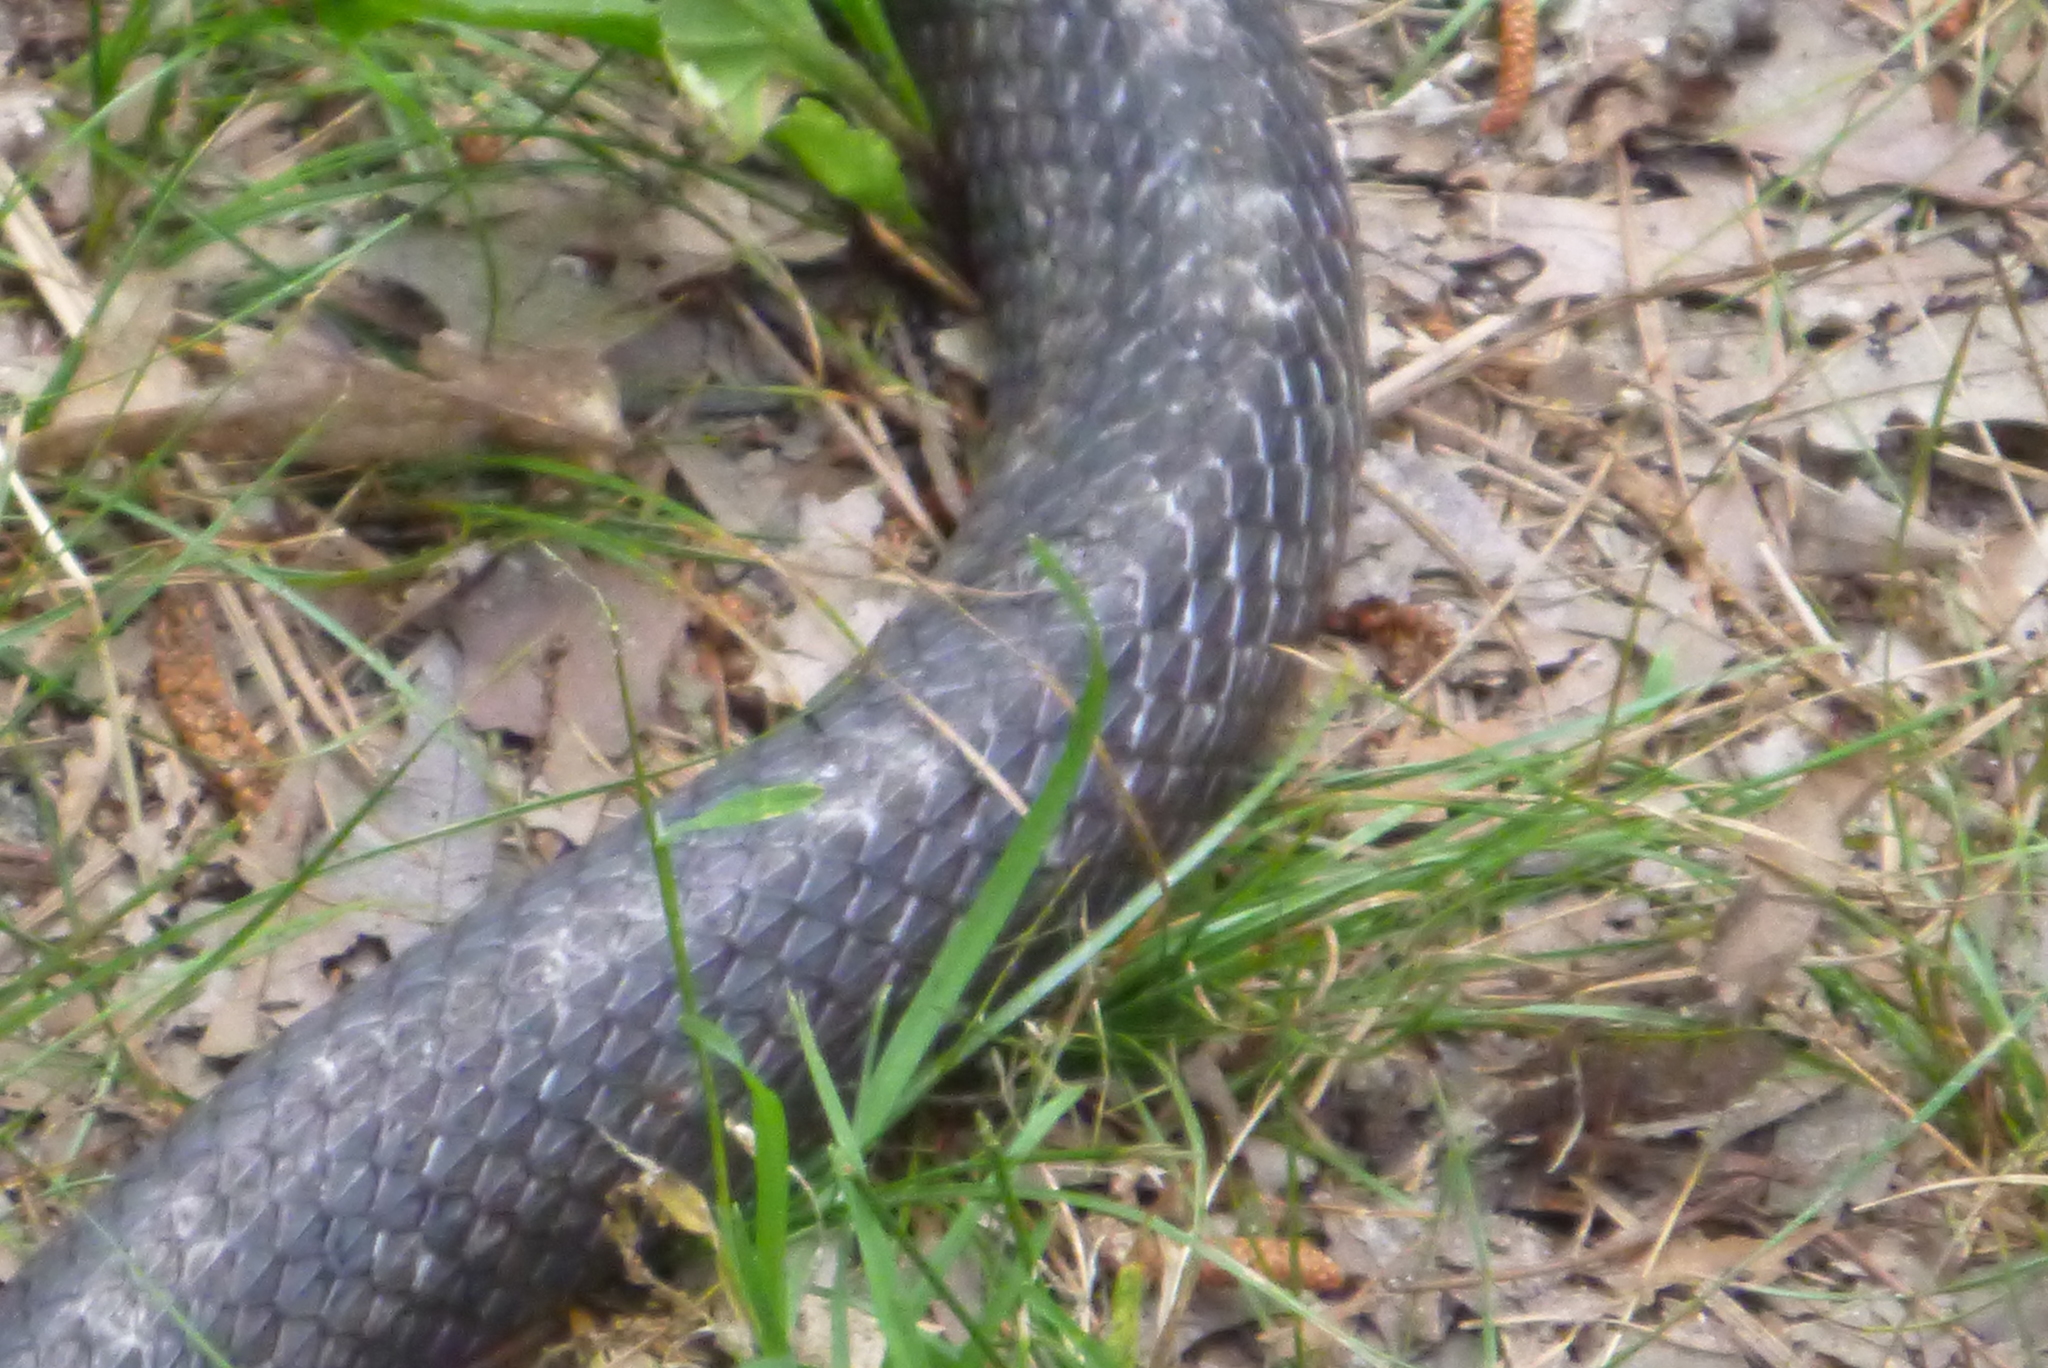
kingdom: Animalia
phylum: Chordata
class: Squamata
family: Colubridae
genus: Pantherophis
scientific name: Pantherophis alleghaniensis
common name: Eastern rat snake
